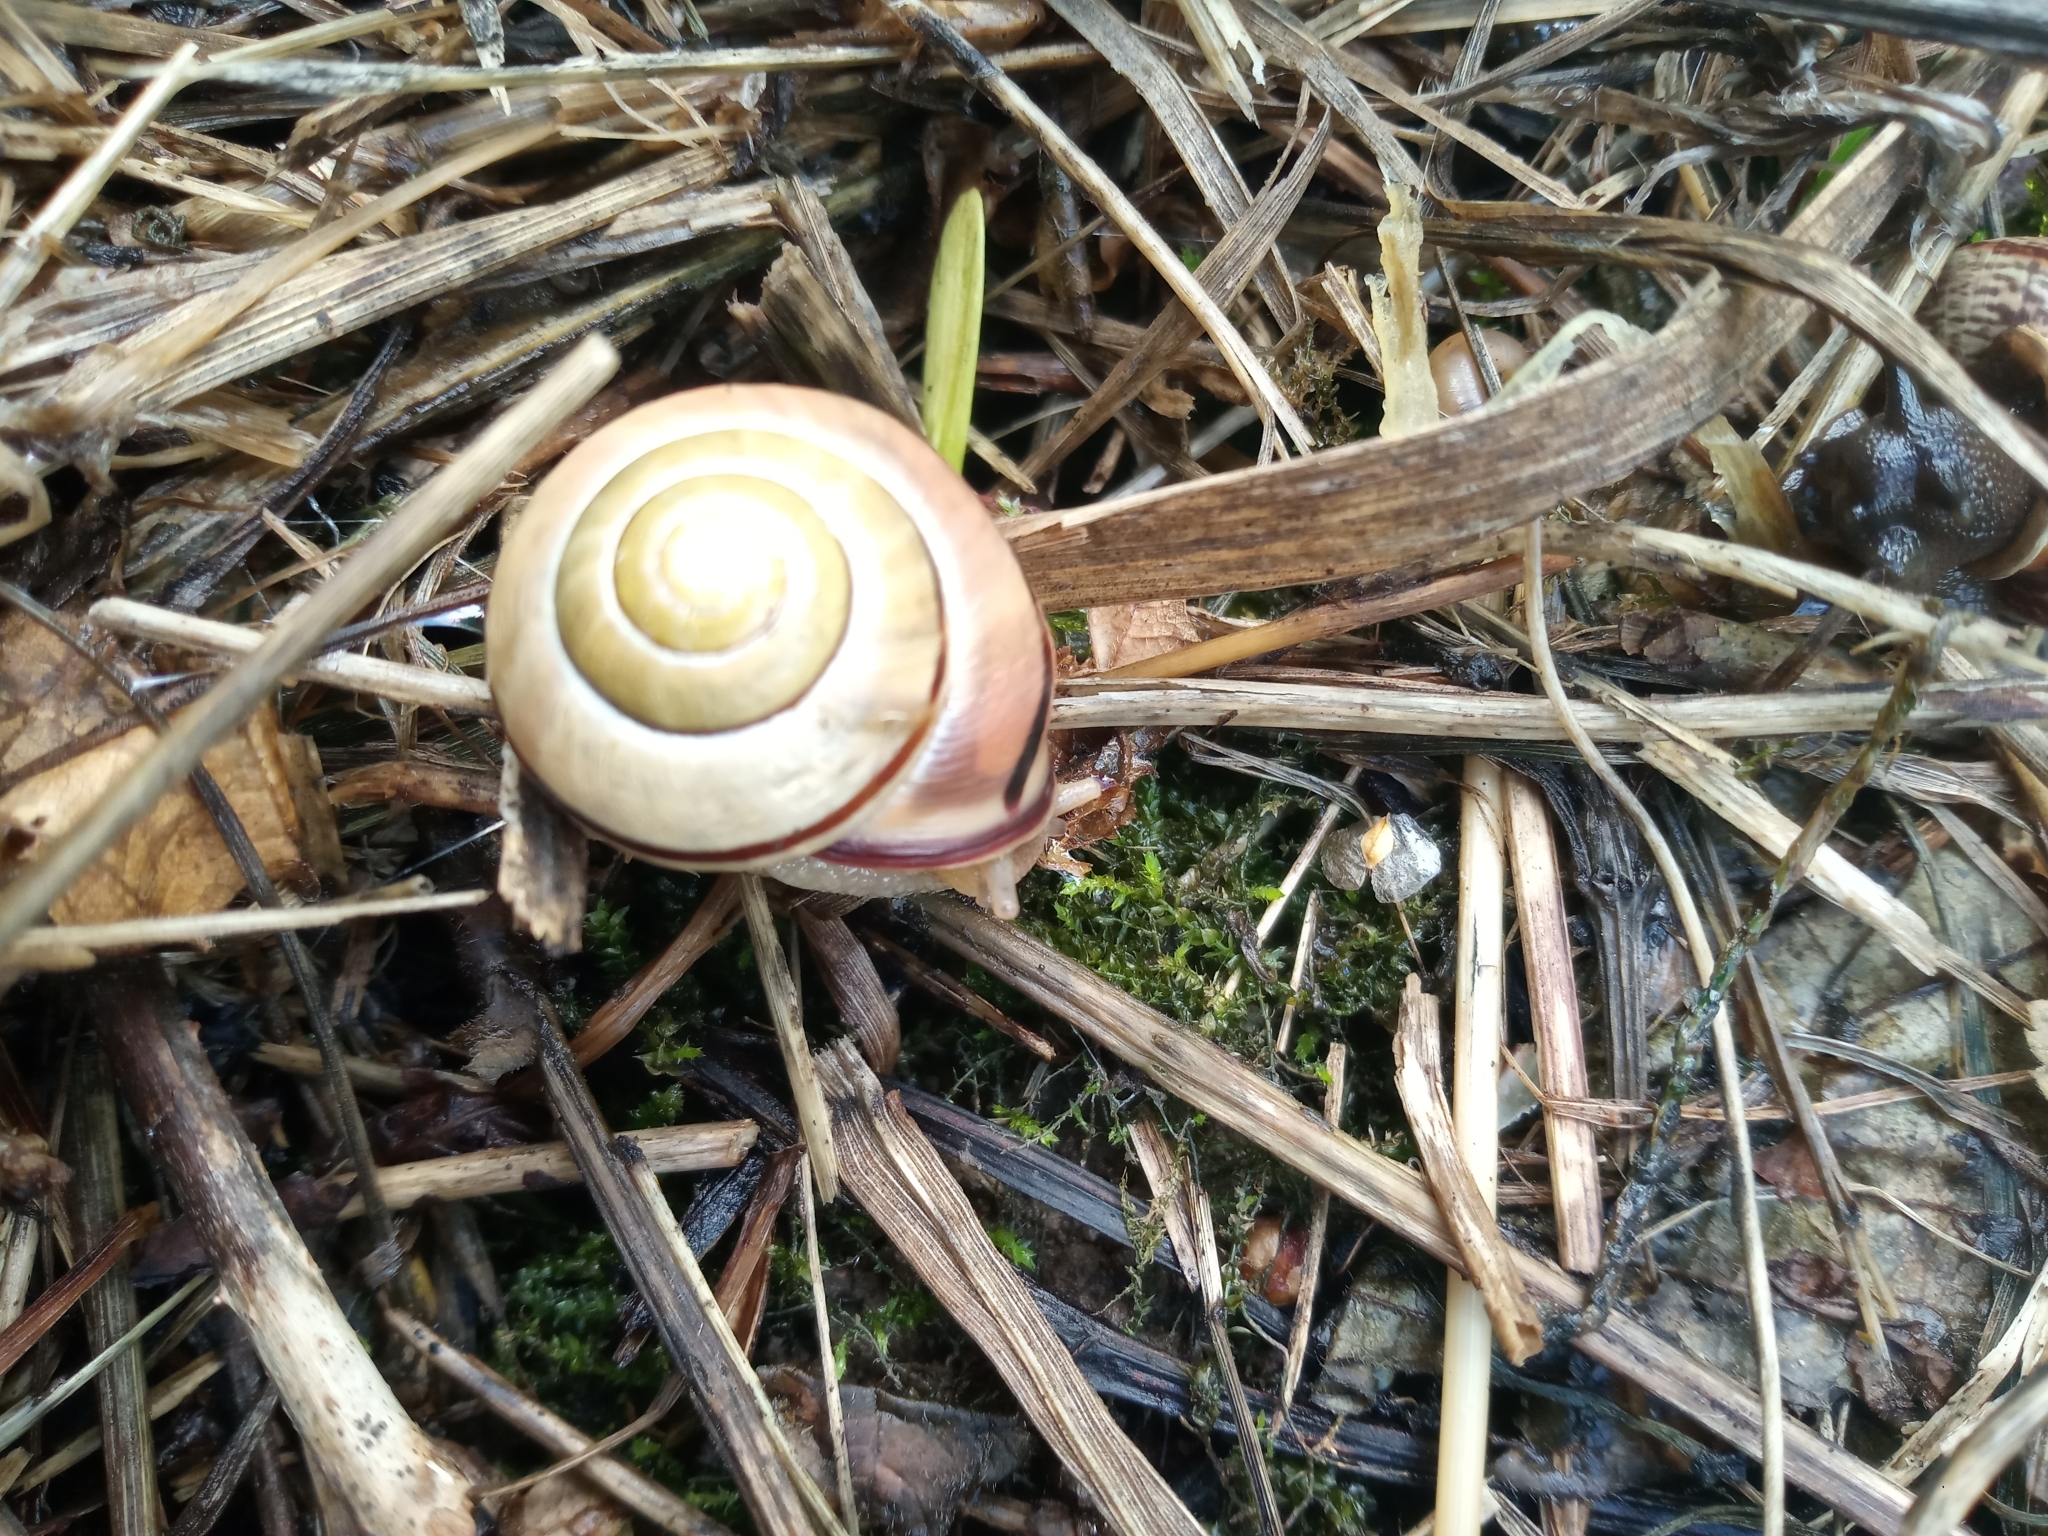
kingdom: Animalia
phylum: Mollusca
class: Gastropoda
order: Stylommatophora
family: Helicidae
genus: Cepaea
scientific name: Cepaea nemoralis
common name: Grovesnail
